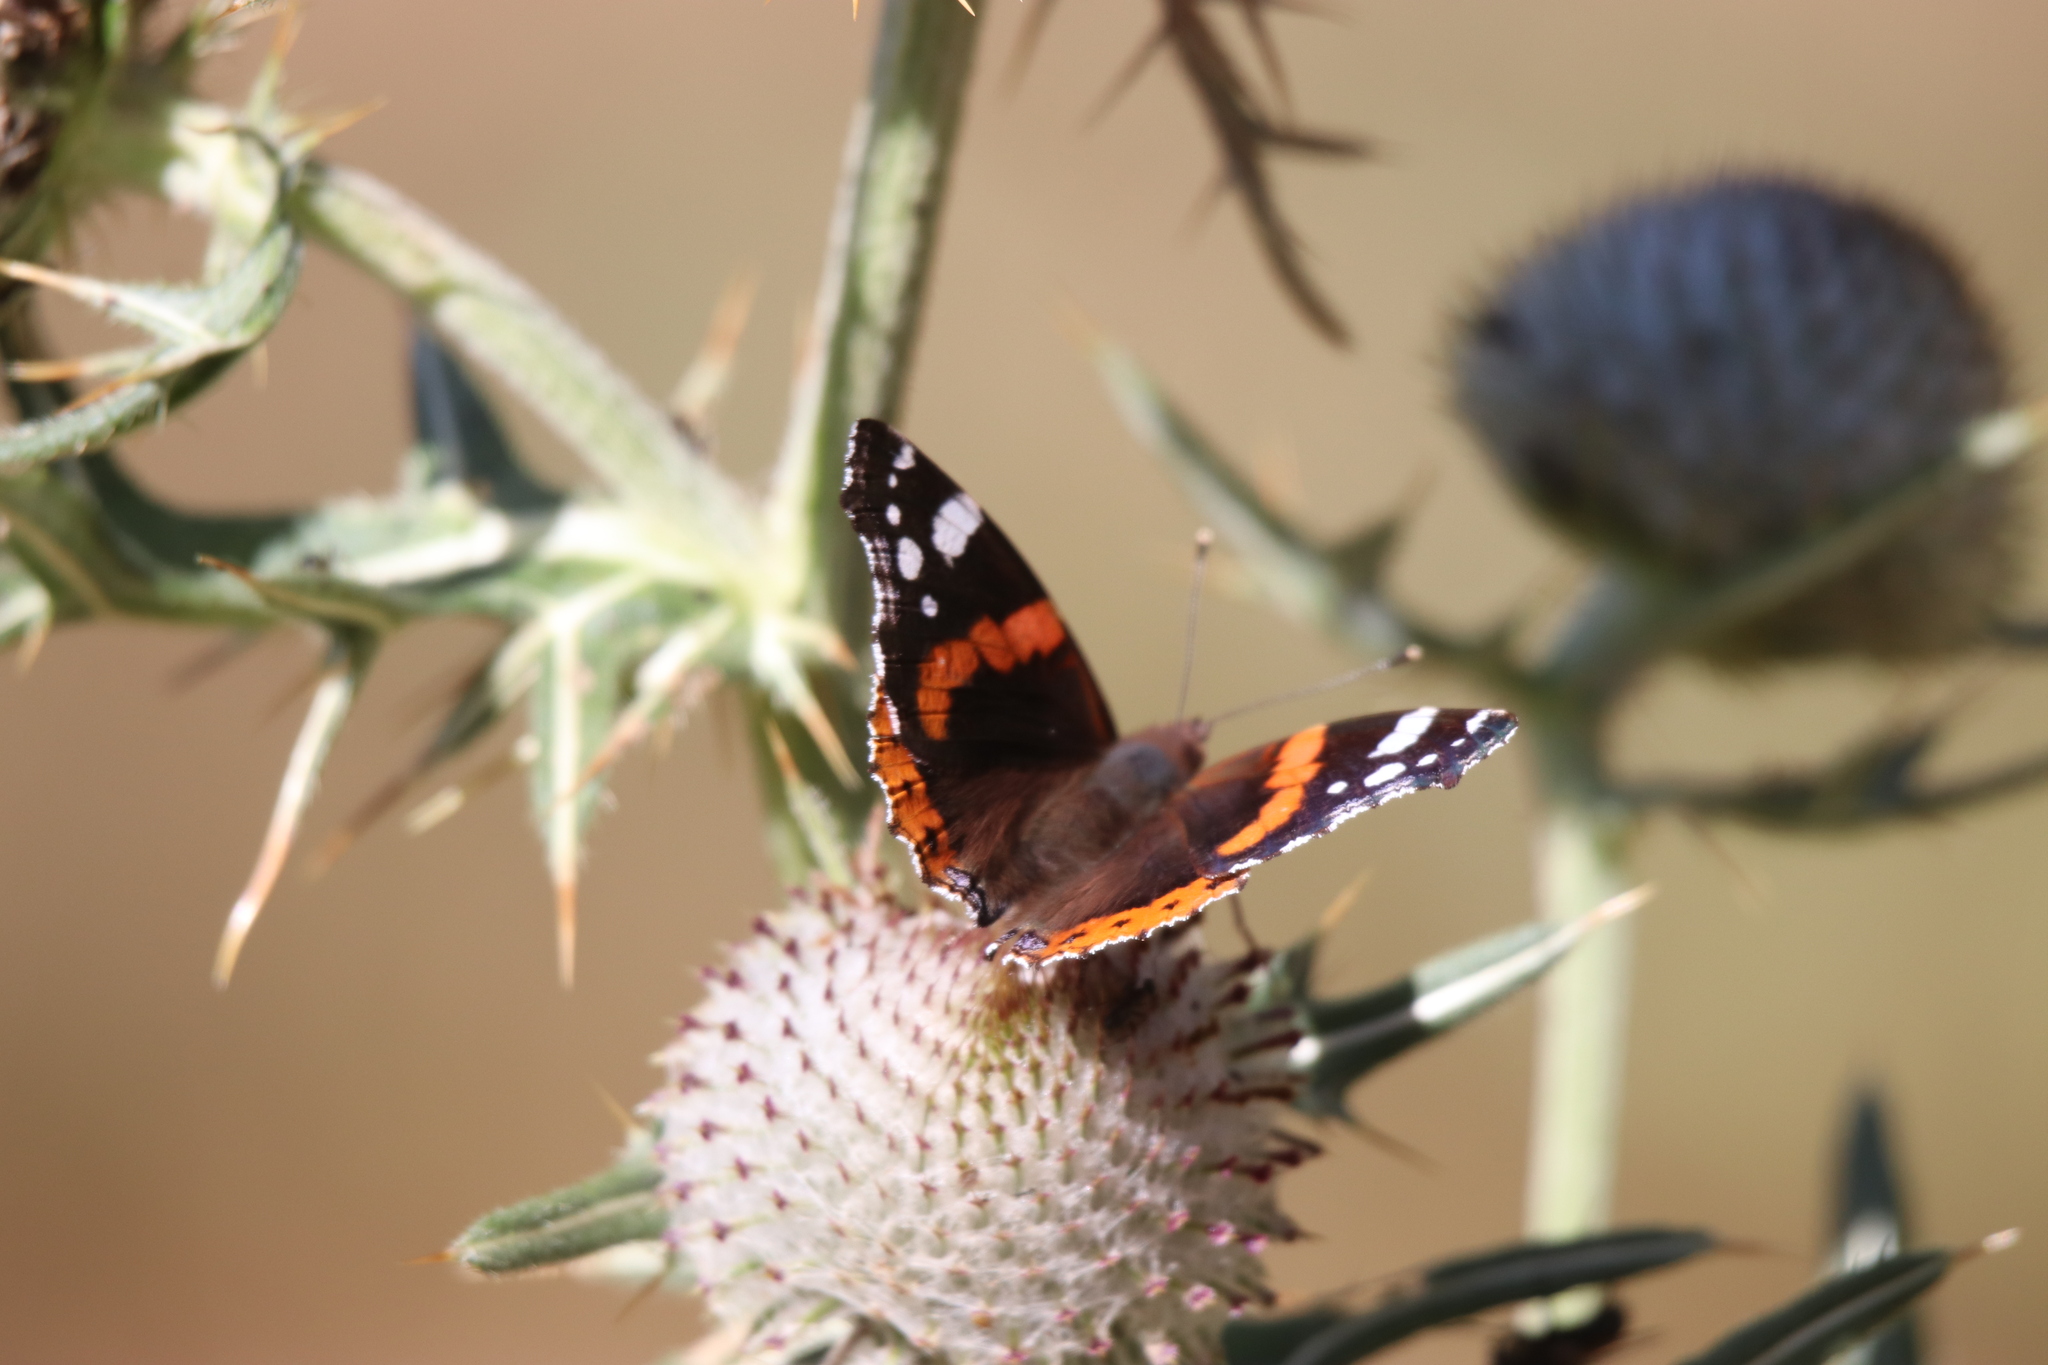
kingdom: Animalia
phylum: Arthropoda
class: Insecta
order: Lepidoptera
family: Nymphalidae
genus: Vanessa
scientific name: Vanessa atalanta
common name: Red admiral
